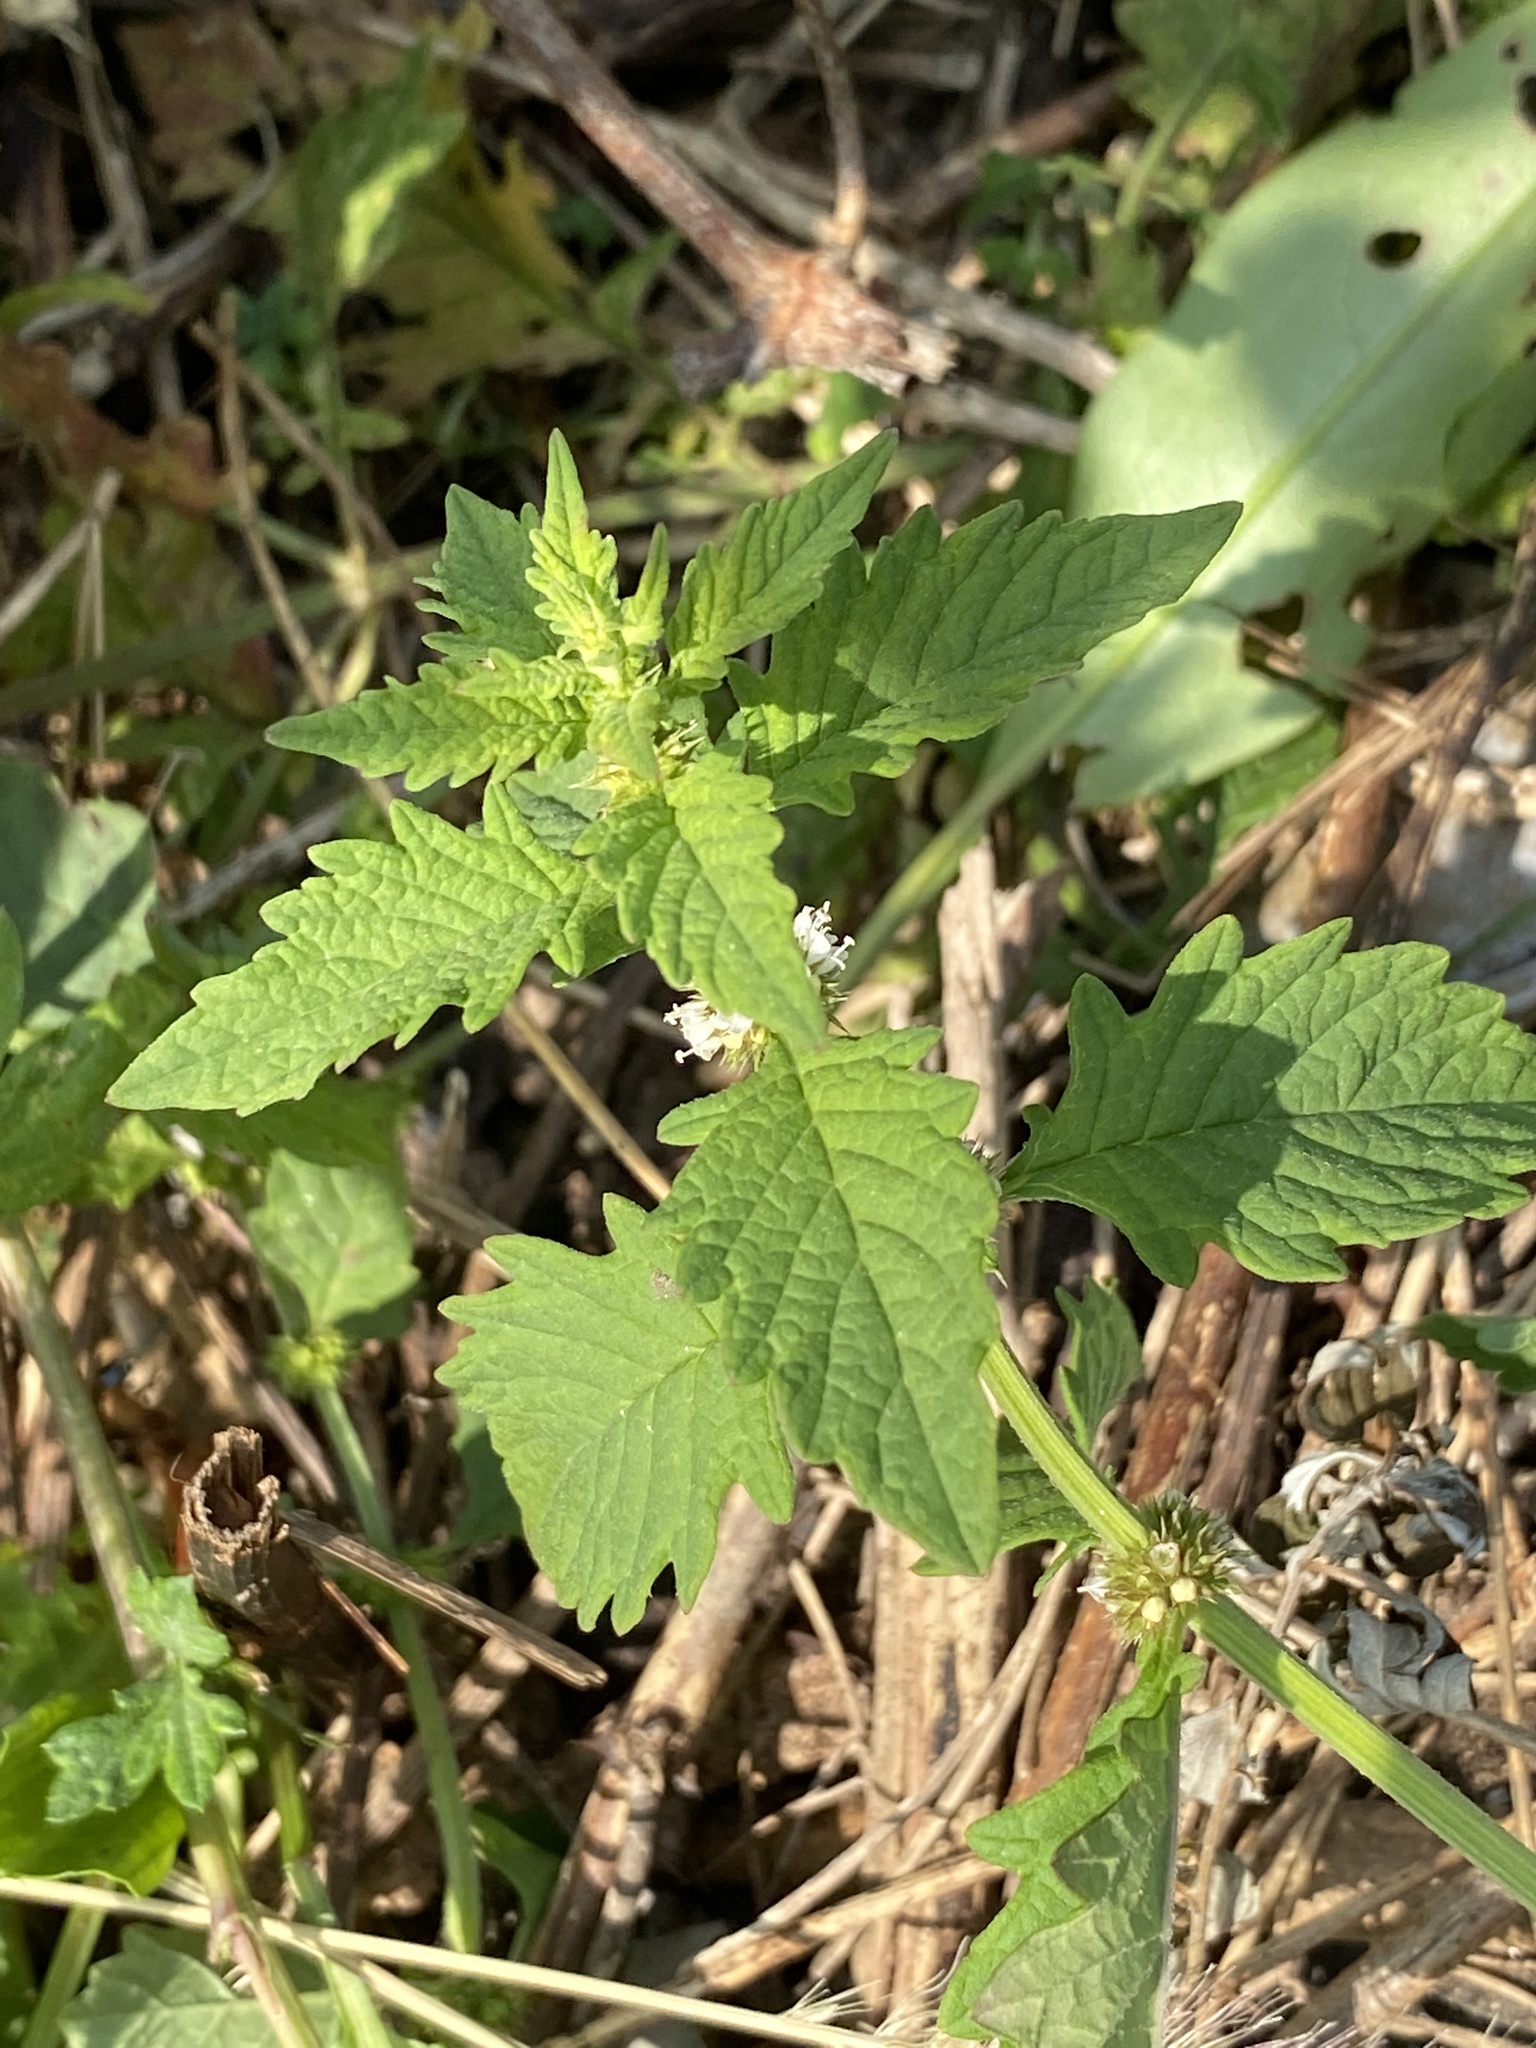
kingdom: Plantae
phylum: Tracheophyta
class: Magnoliopsida
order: Lamiales
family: Lamiaceae
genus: Lycopus
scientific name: Lycopus europaeus
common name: European bugleweed
